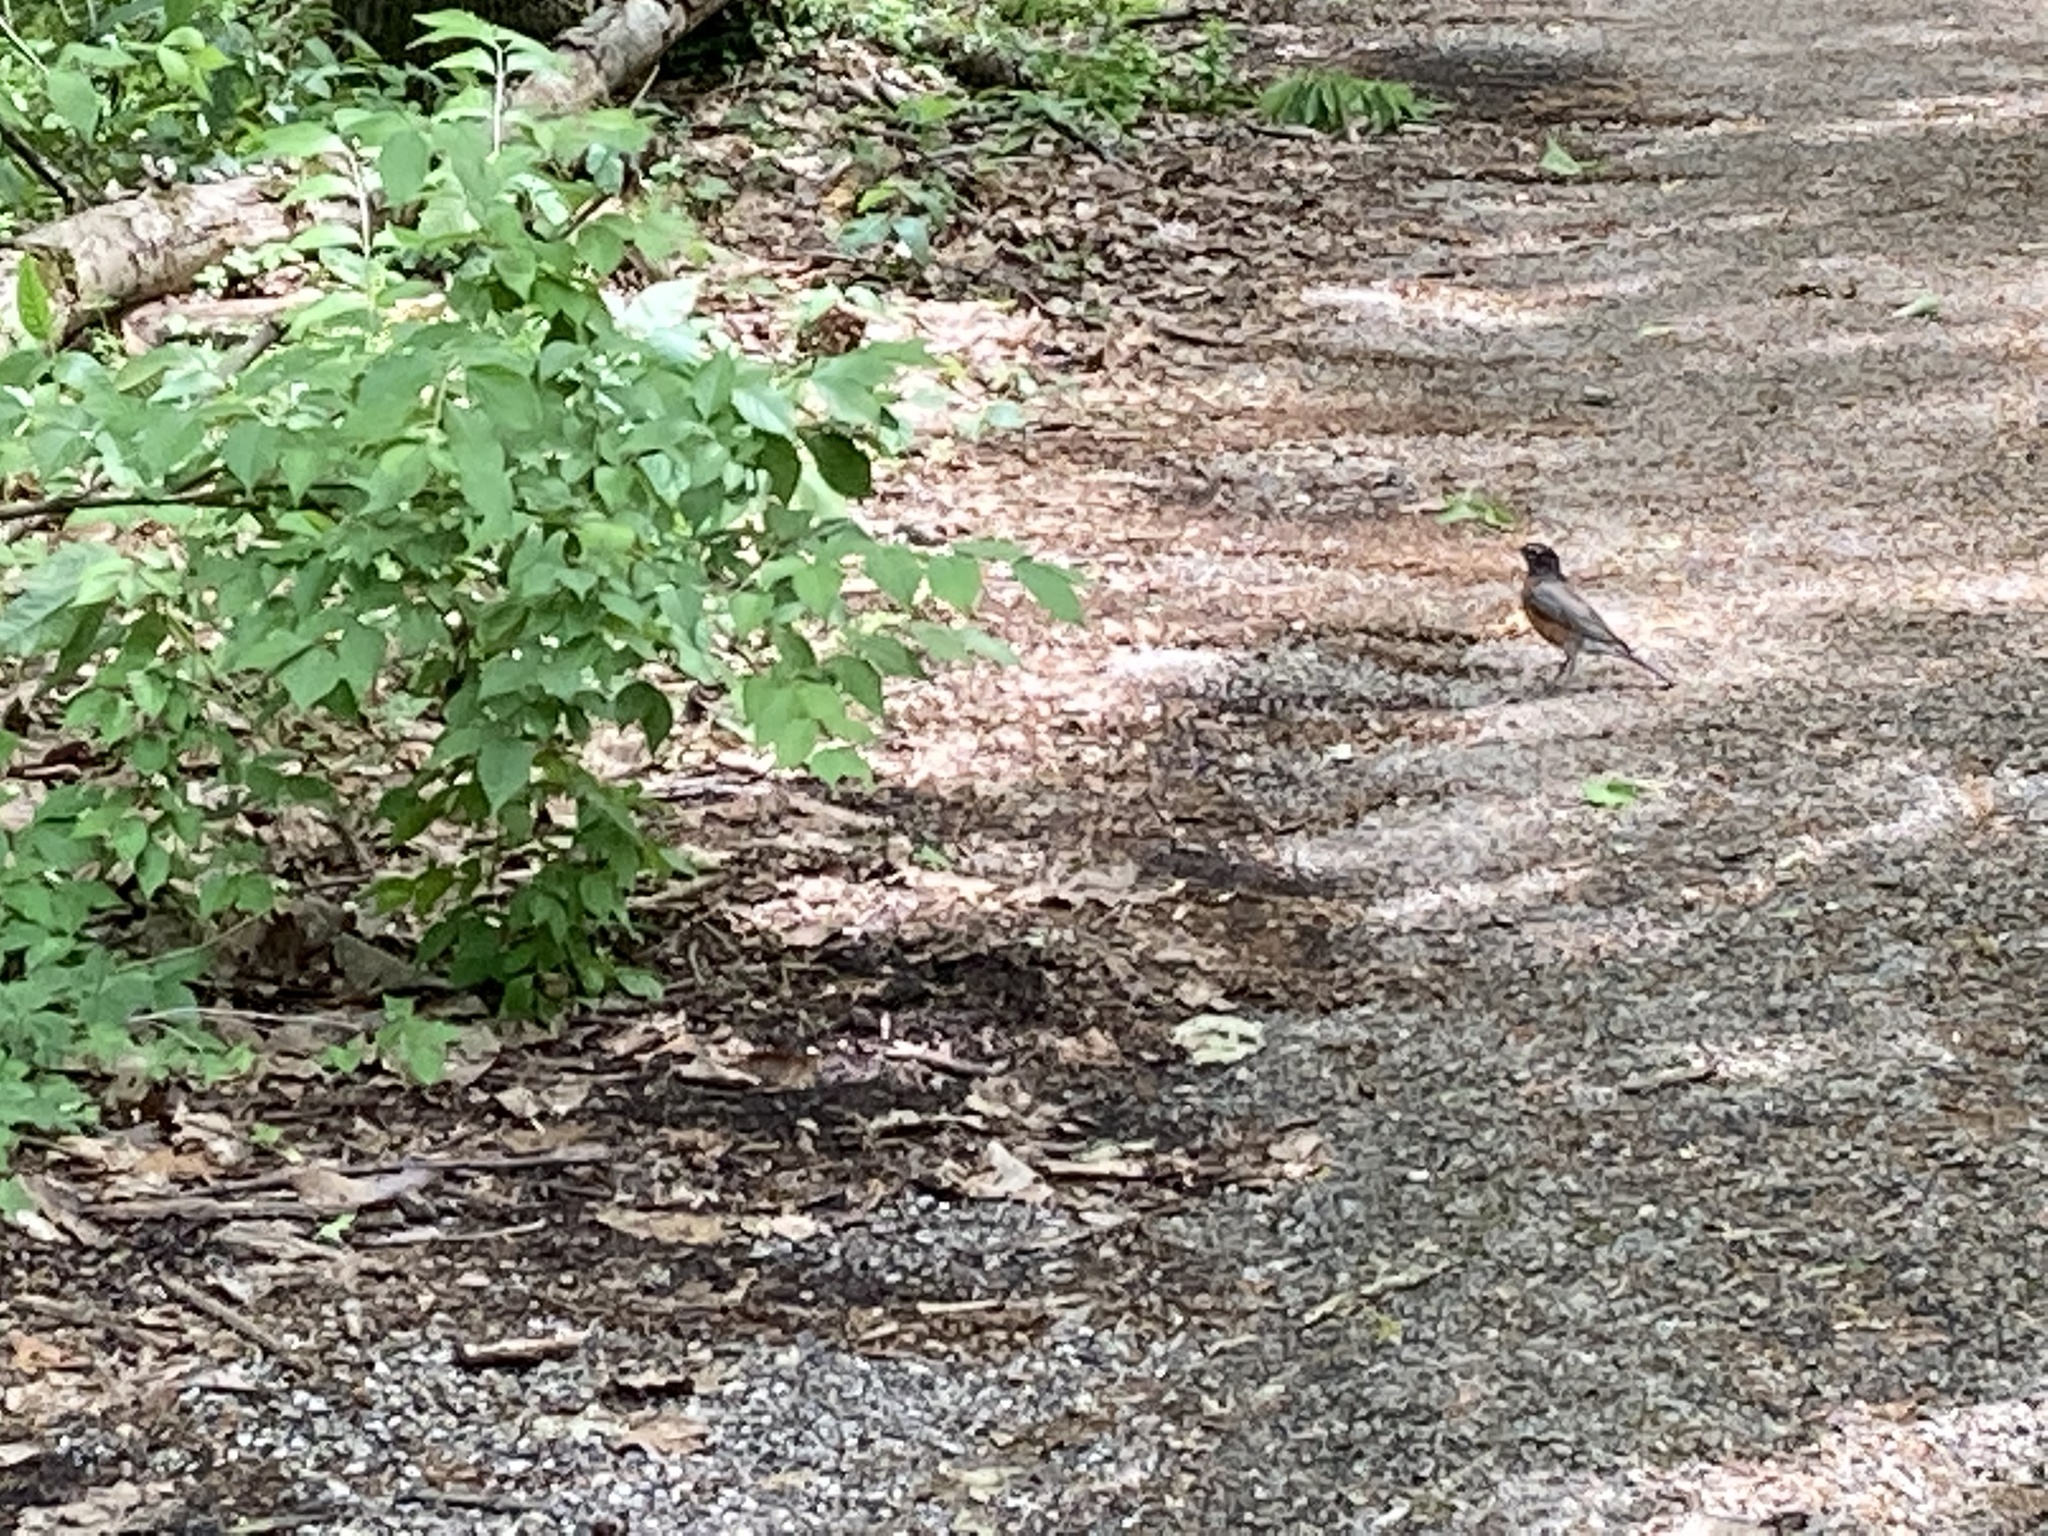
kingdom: Animalia
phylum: Chordata
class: Aves
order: Passeriformes
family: Turdidae
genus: Turdus
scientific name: Turdus migratorius
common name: American robin
